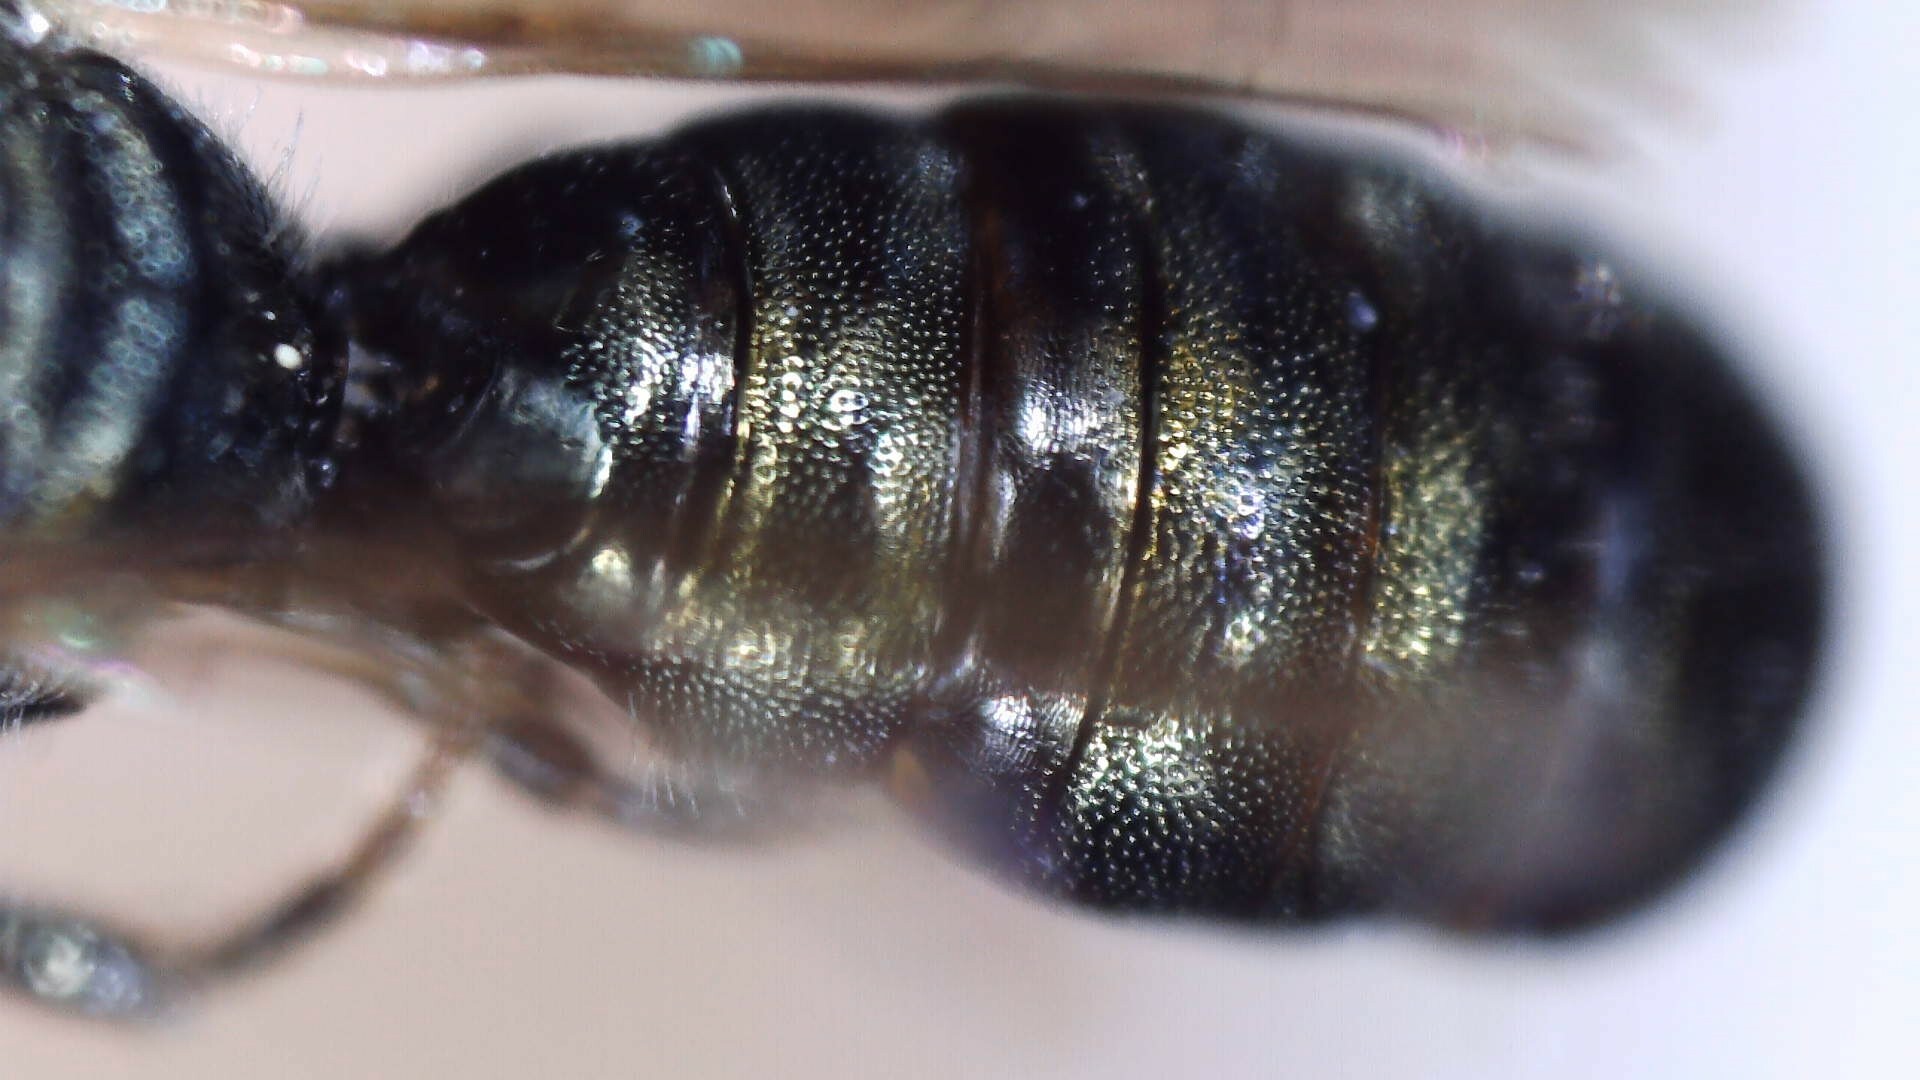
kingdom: Animalia
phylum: Arthropoda
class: Insecta
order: Hymenoptera
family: Apidae
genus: Zadontomerus
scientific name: Zadontomerus
